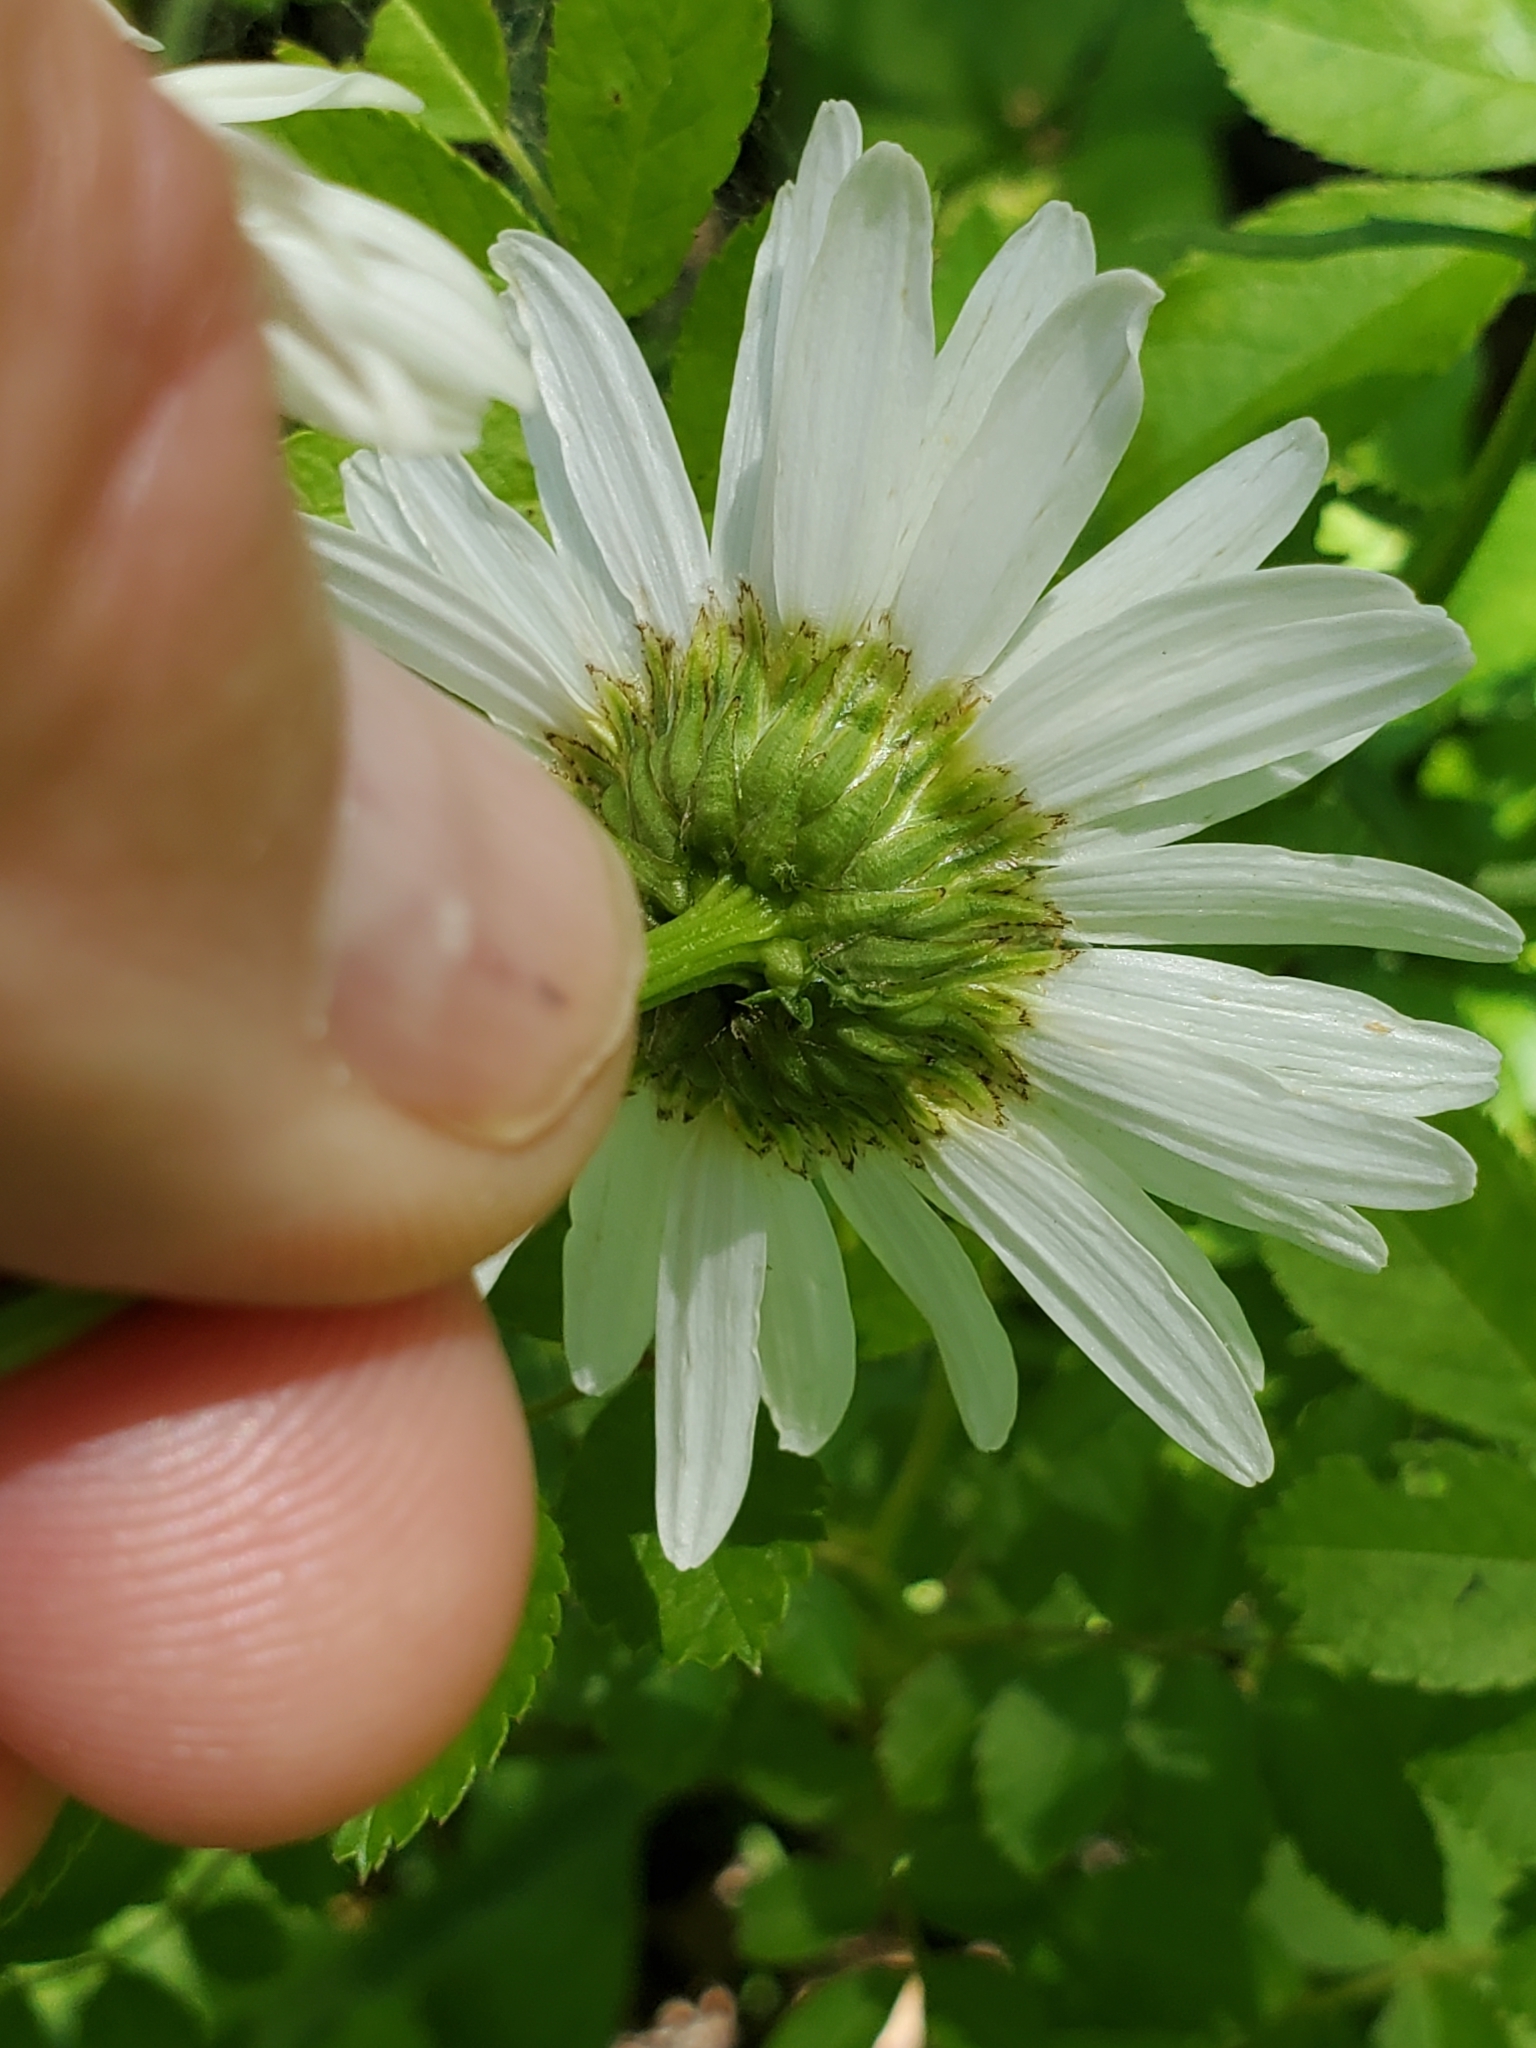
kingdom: Plantae
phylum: Tracheophyta
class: Magnoliopsida
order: Asterales
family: Asteraceae
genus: Leucanthemum
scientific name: Leucanthemum vulgare
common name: Oxeye daisy
